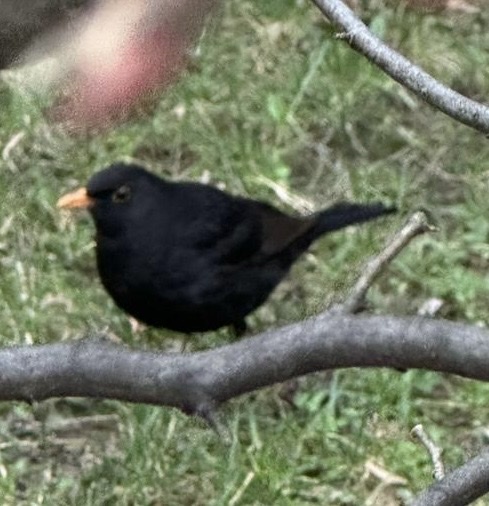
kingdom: Animalia
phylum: Chordata
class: Aves
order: Passeriformes
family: Turdidae
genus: Turdus
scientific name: Turdus merula
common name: Common blackbird
